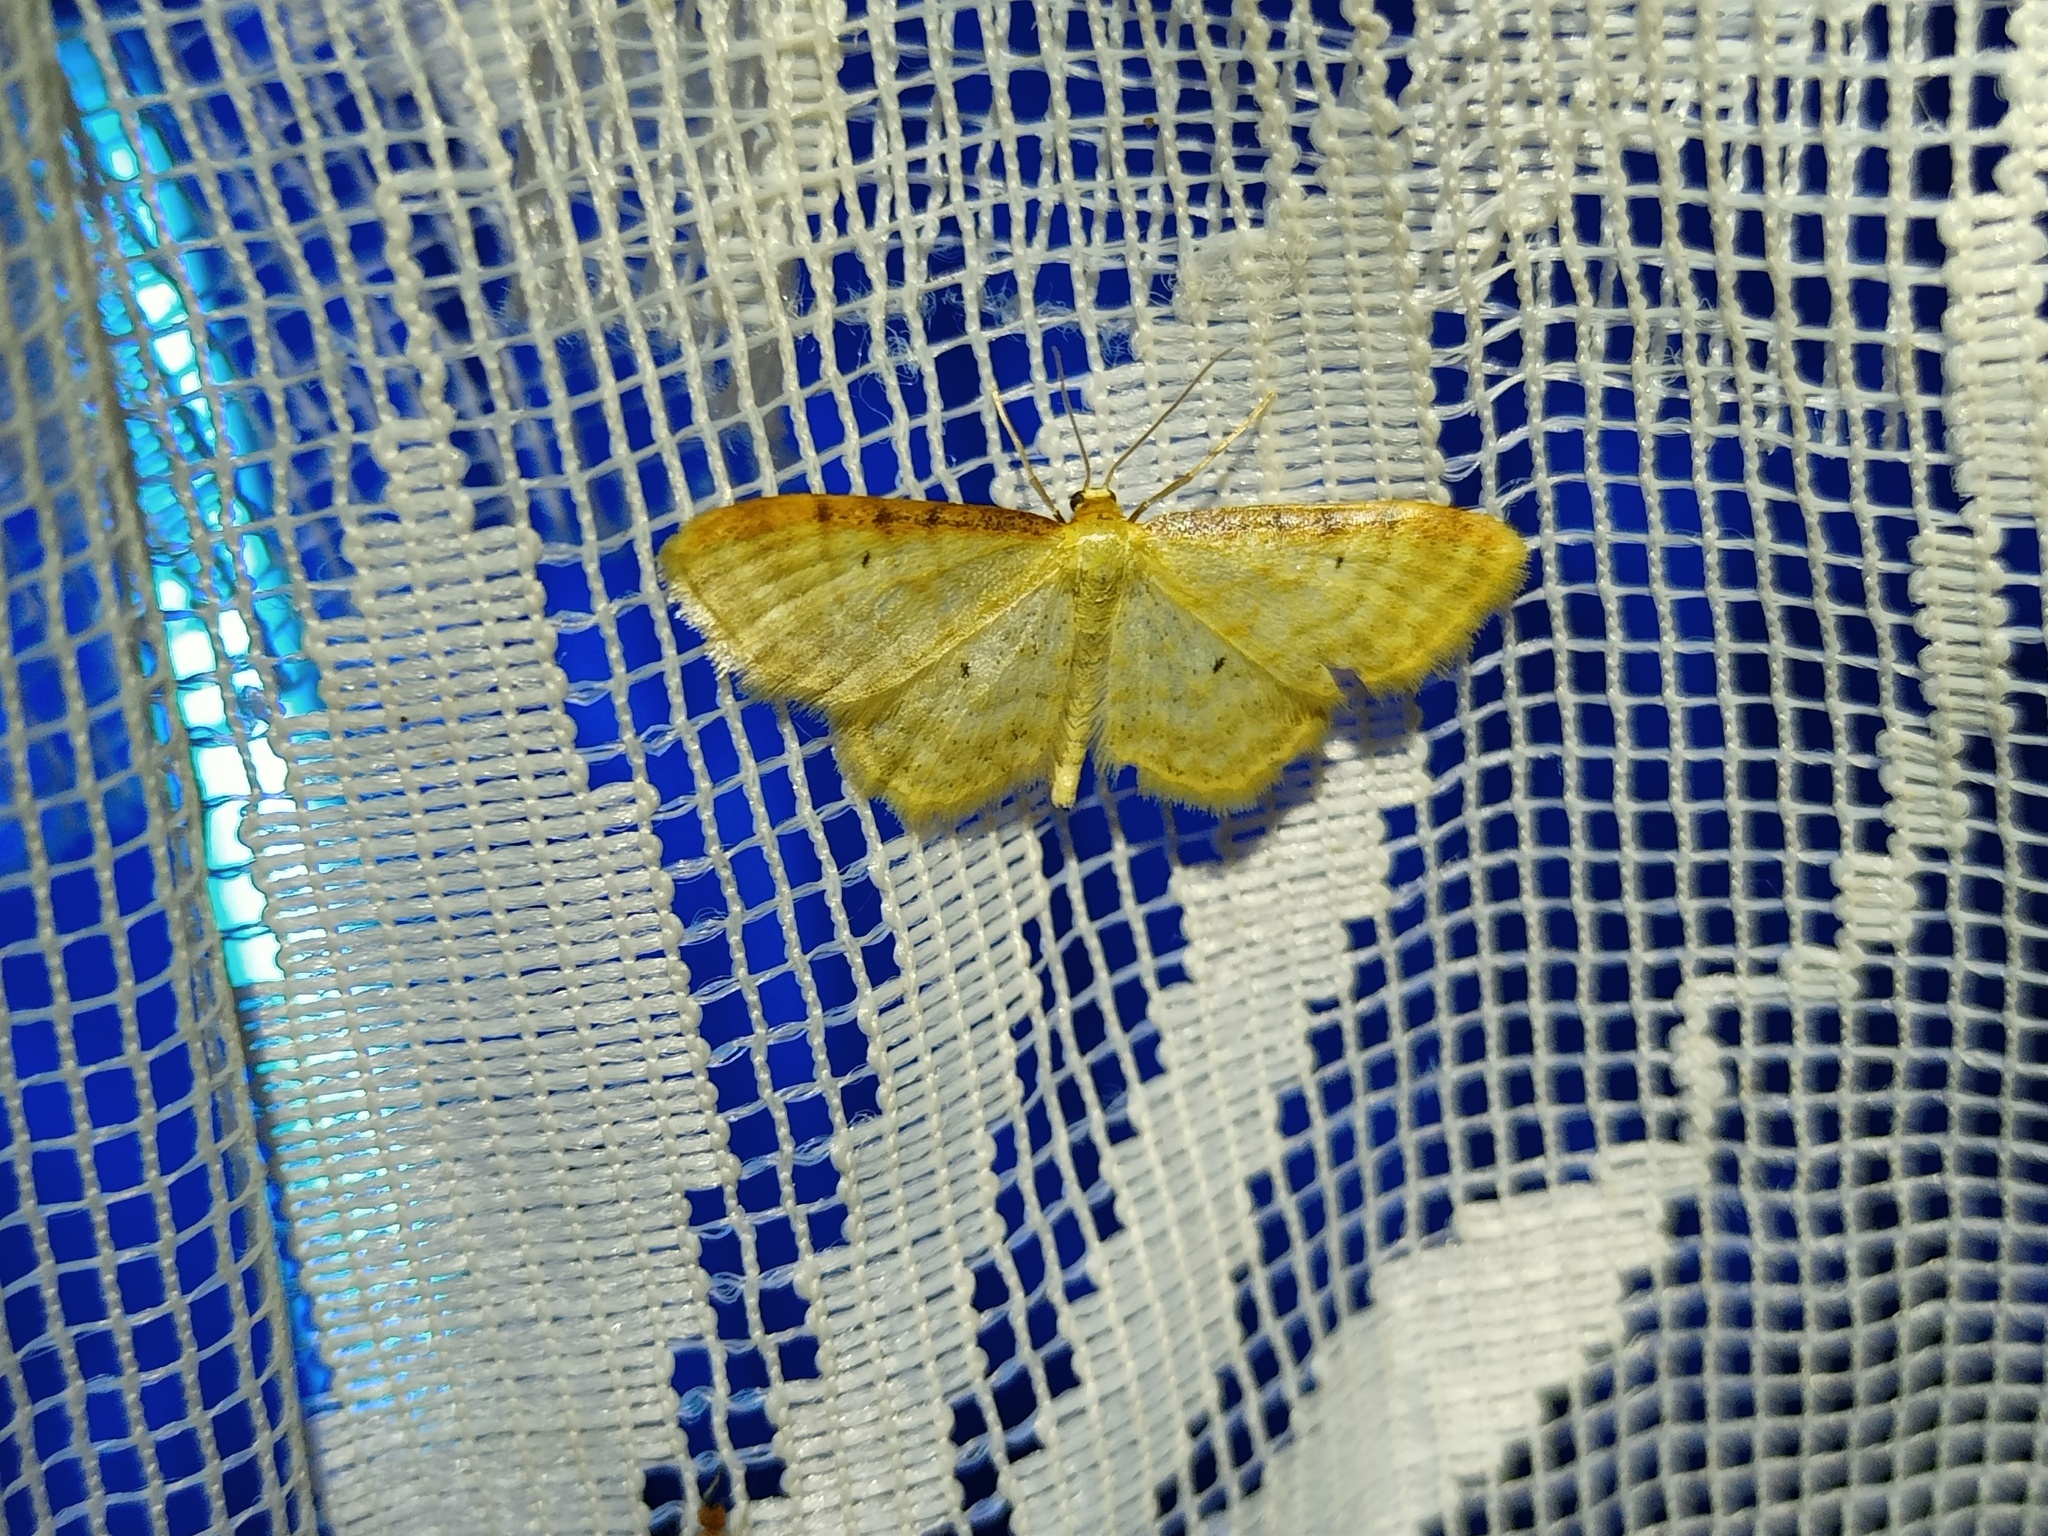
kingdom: Animalia
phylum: Arthropoda
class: Insecta
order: Lepidoptera
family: Geometridae
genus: Idaea
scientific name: Idaea humiliata
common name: Isle of wight wave
